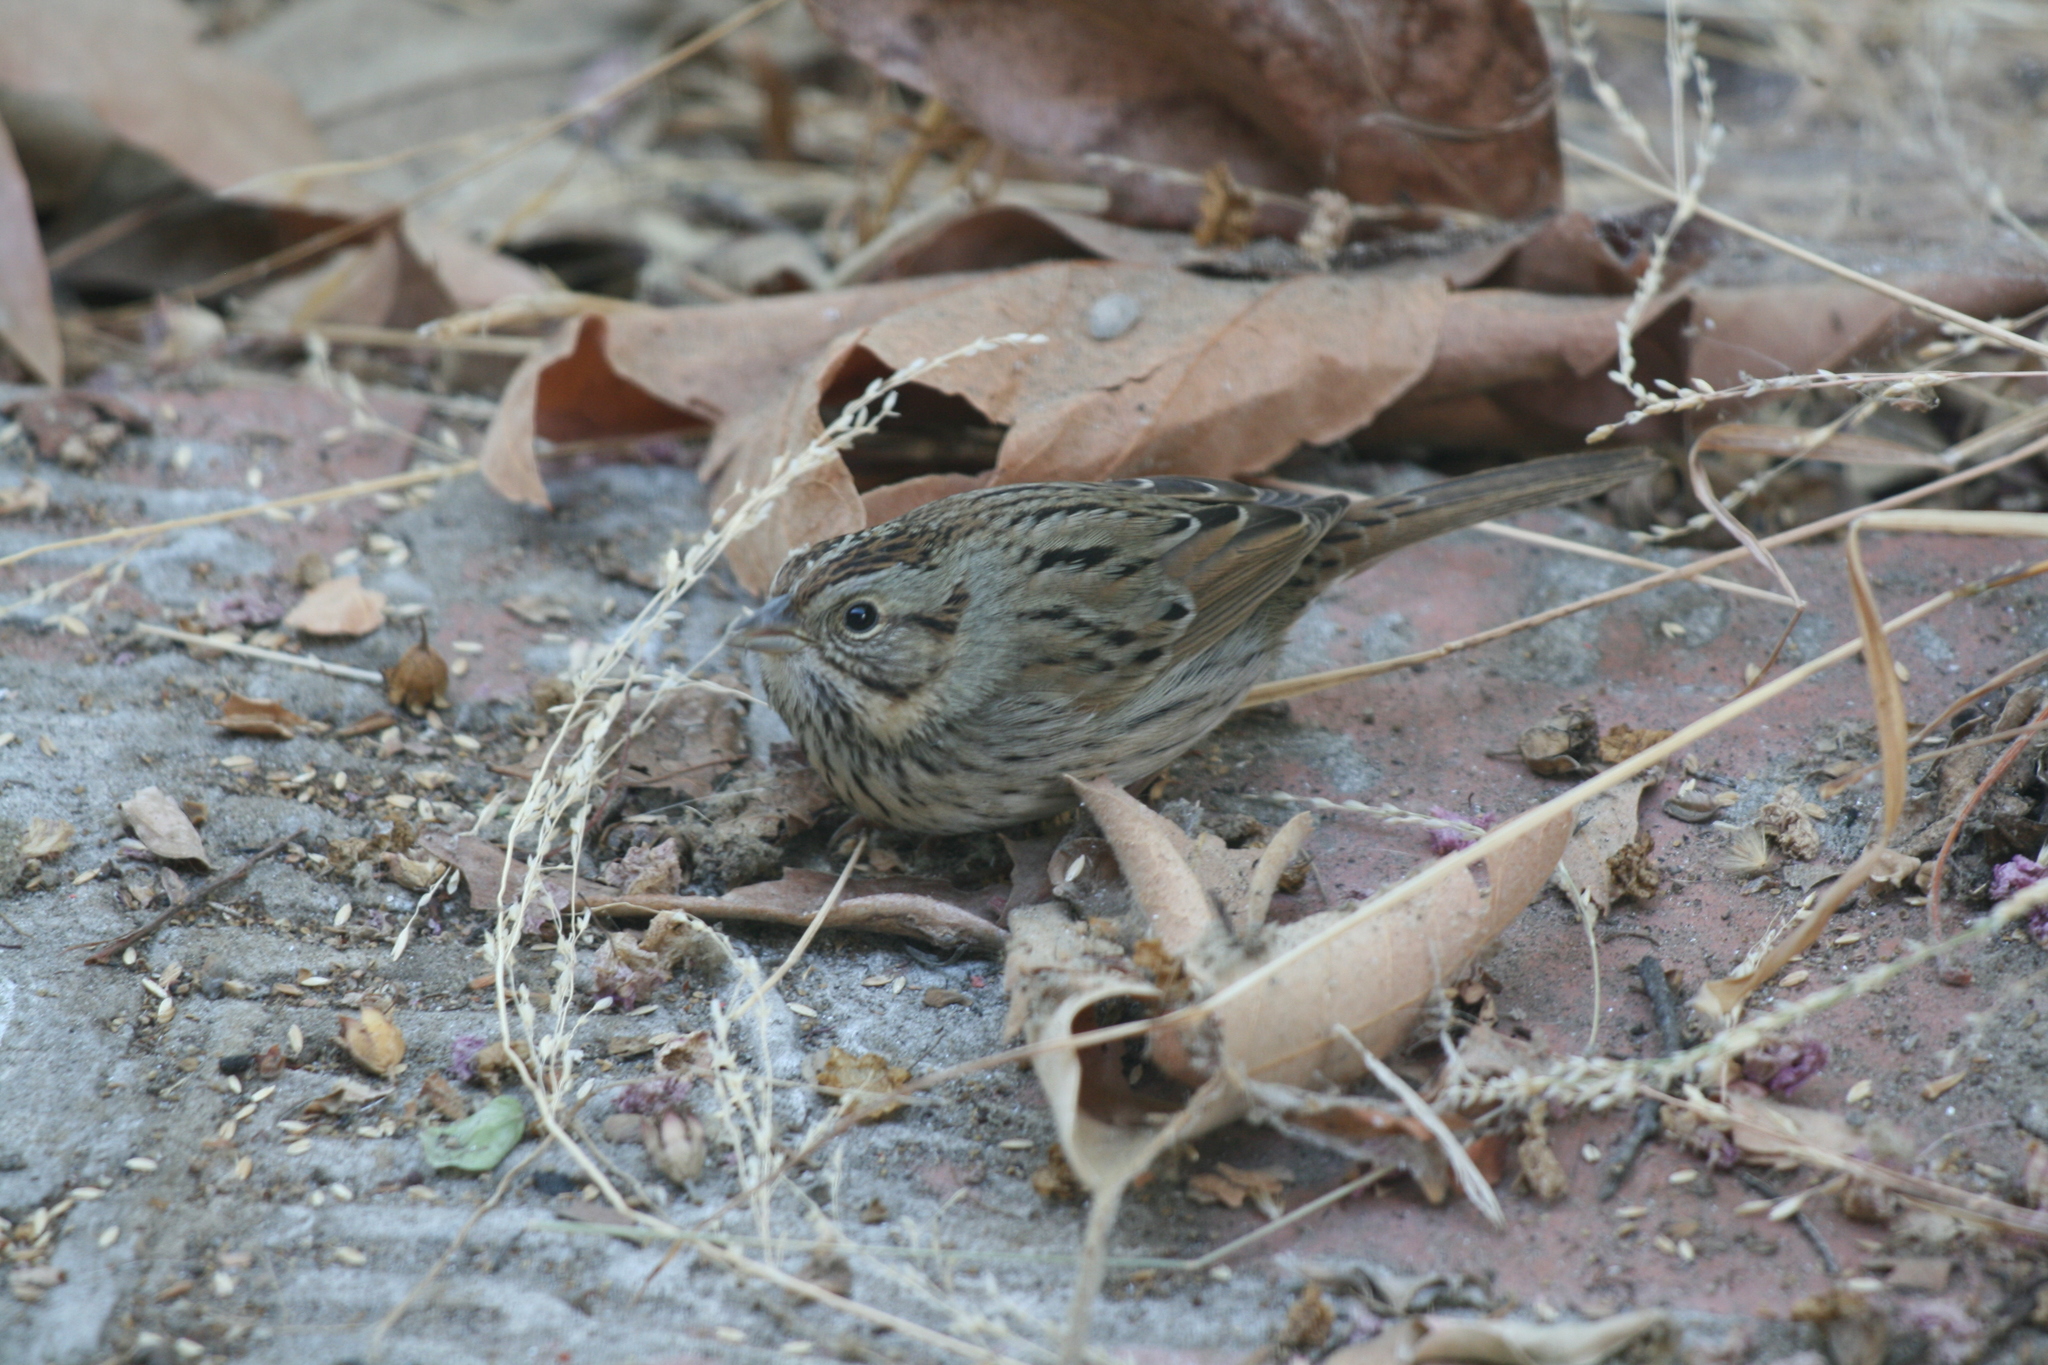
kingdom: Animalia
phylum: Chordata
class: Aves
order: Passeriformes
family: Passerellidae
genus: Melospiza
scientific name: Melospiza lincolnii
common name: Lincoln's sparrow
